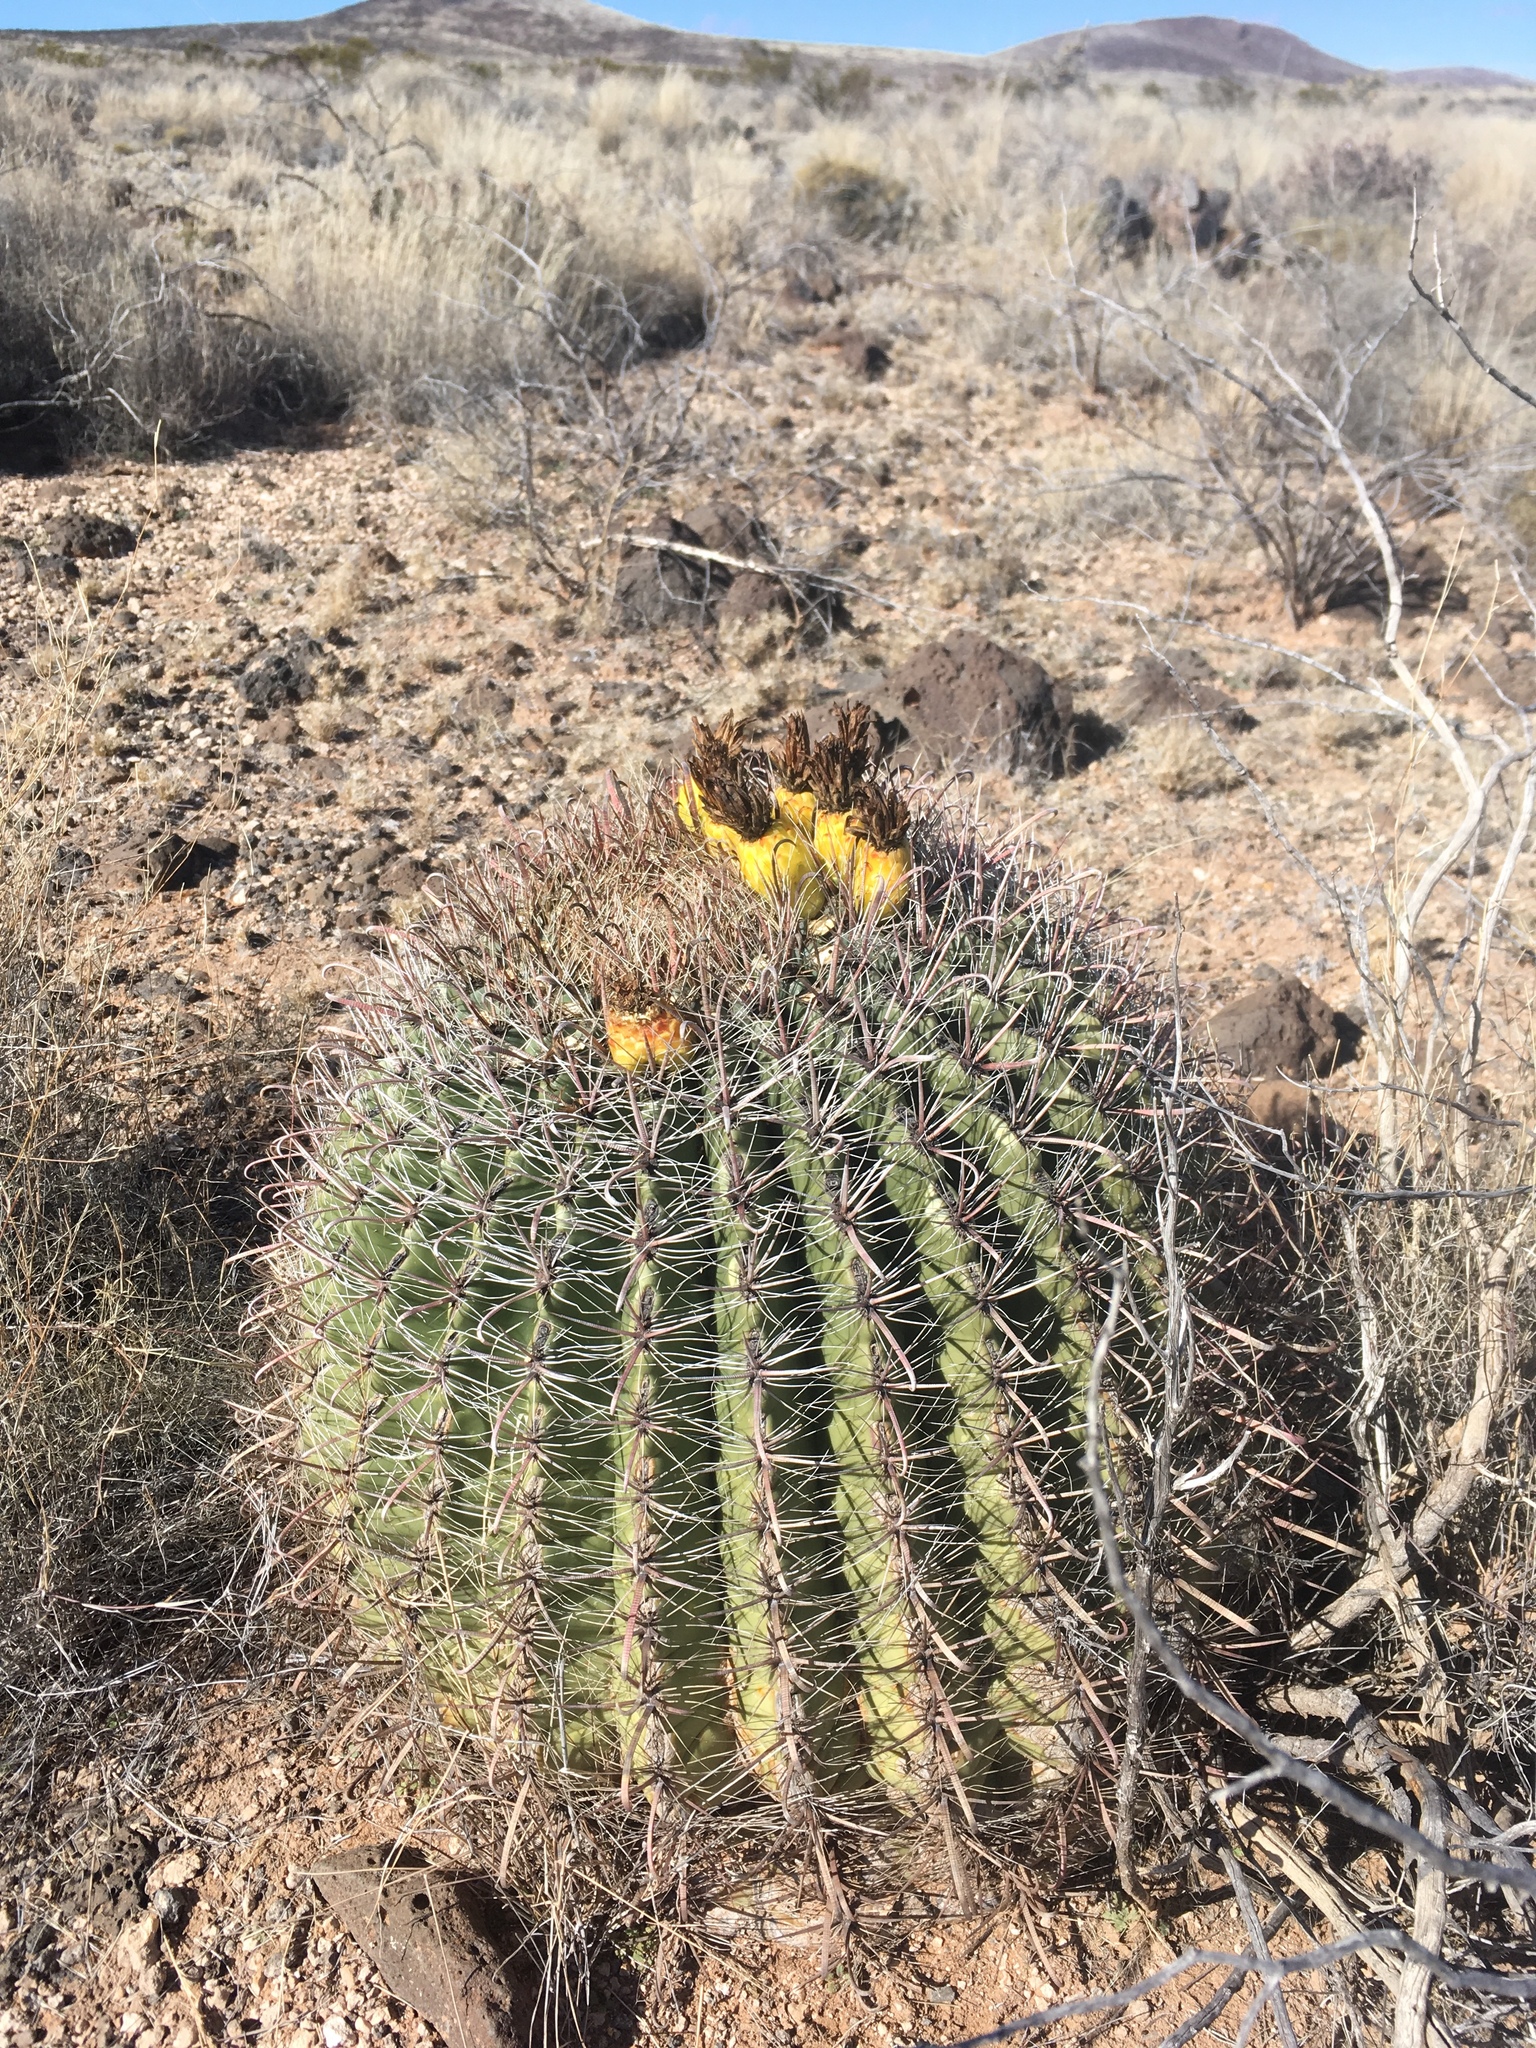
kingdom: Plantae
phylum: Tracheophyta
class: Magnoliopsida
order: Caryophyllales
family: Cactaceae
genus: Ferocactus
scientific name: Ferocactus wislizeni
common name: Candy barrel cactus
